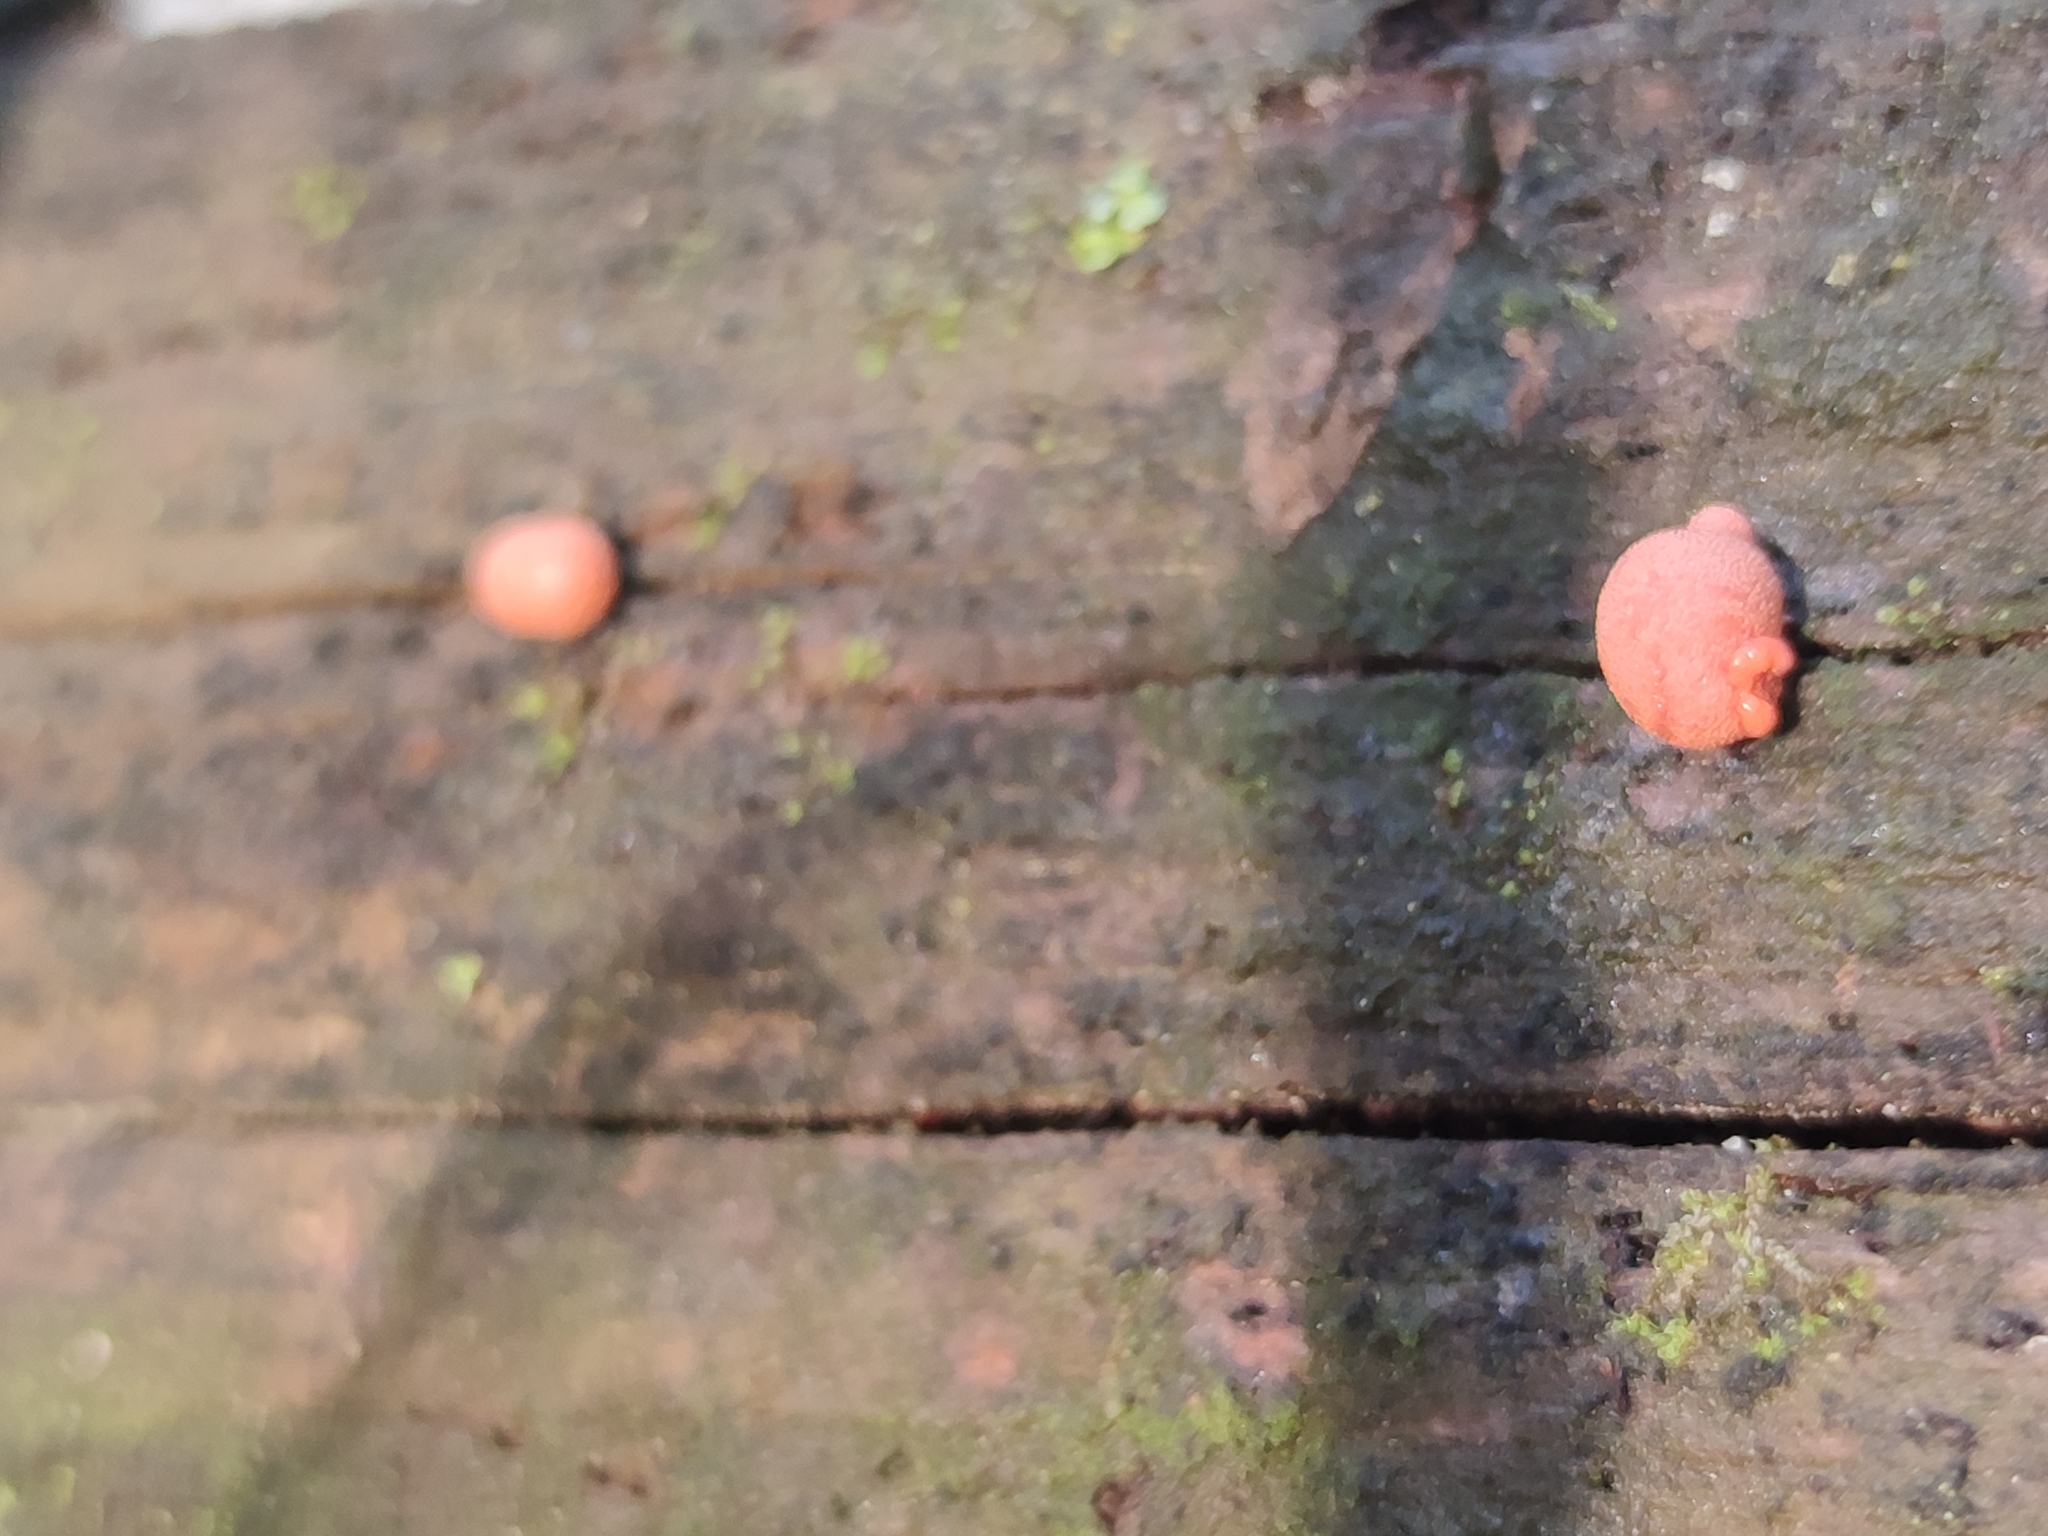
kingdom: Protozoa
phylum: Mycetozoa
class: Myxomycetes
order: Cribrariales
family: Tubiferaceae
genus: Lycogala
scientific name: Lycogala epidendrum
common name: Wolf's milk
